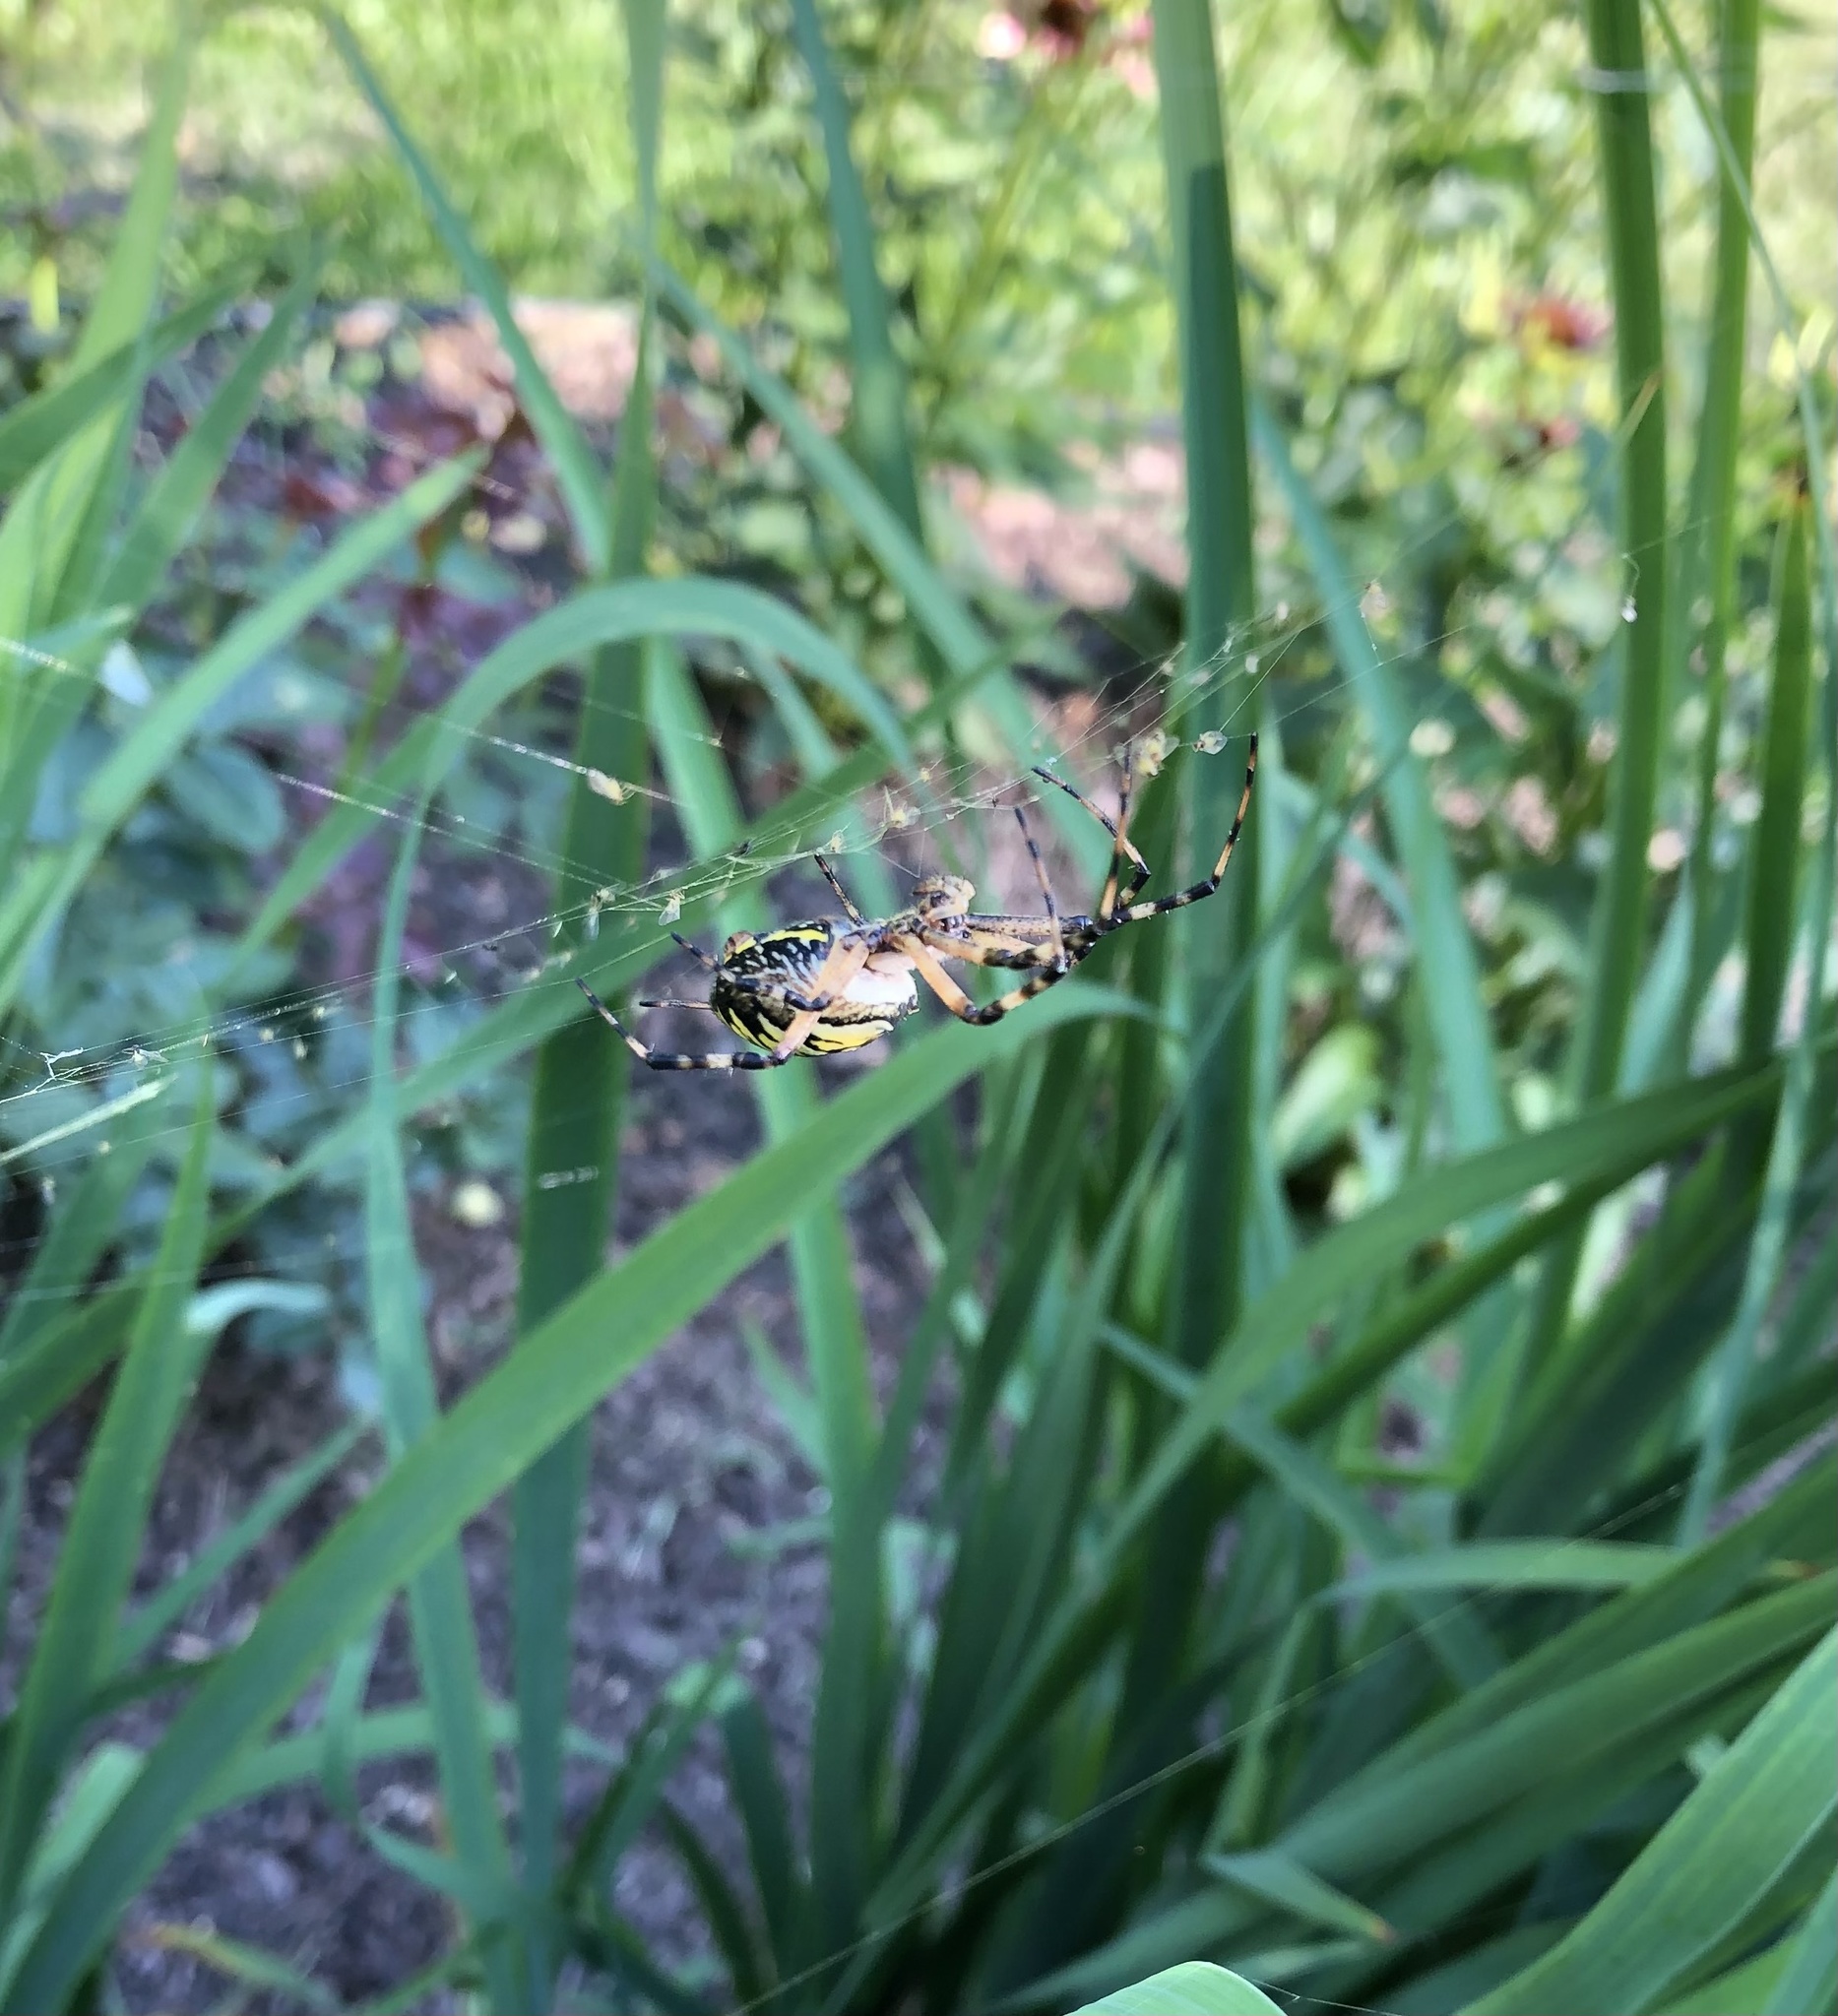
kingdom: Animalia
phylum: Arthropoda
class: Arachnida
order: Araneae
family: Araneidae
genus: Argiope
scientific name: Argiope aurantia
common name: Orb weavers
